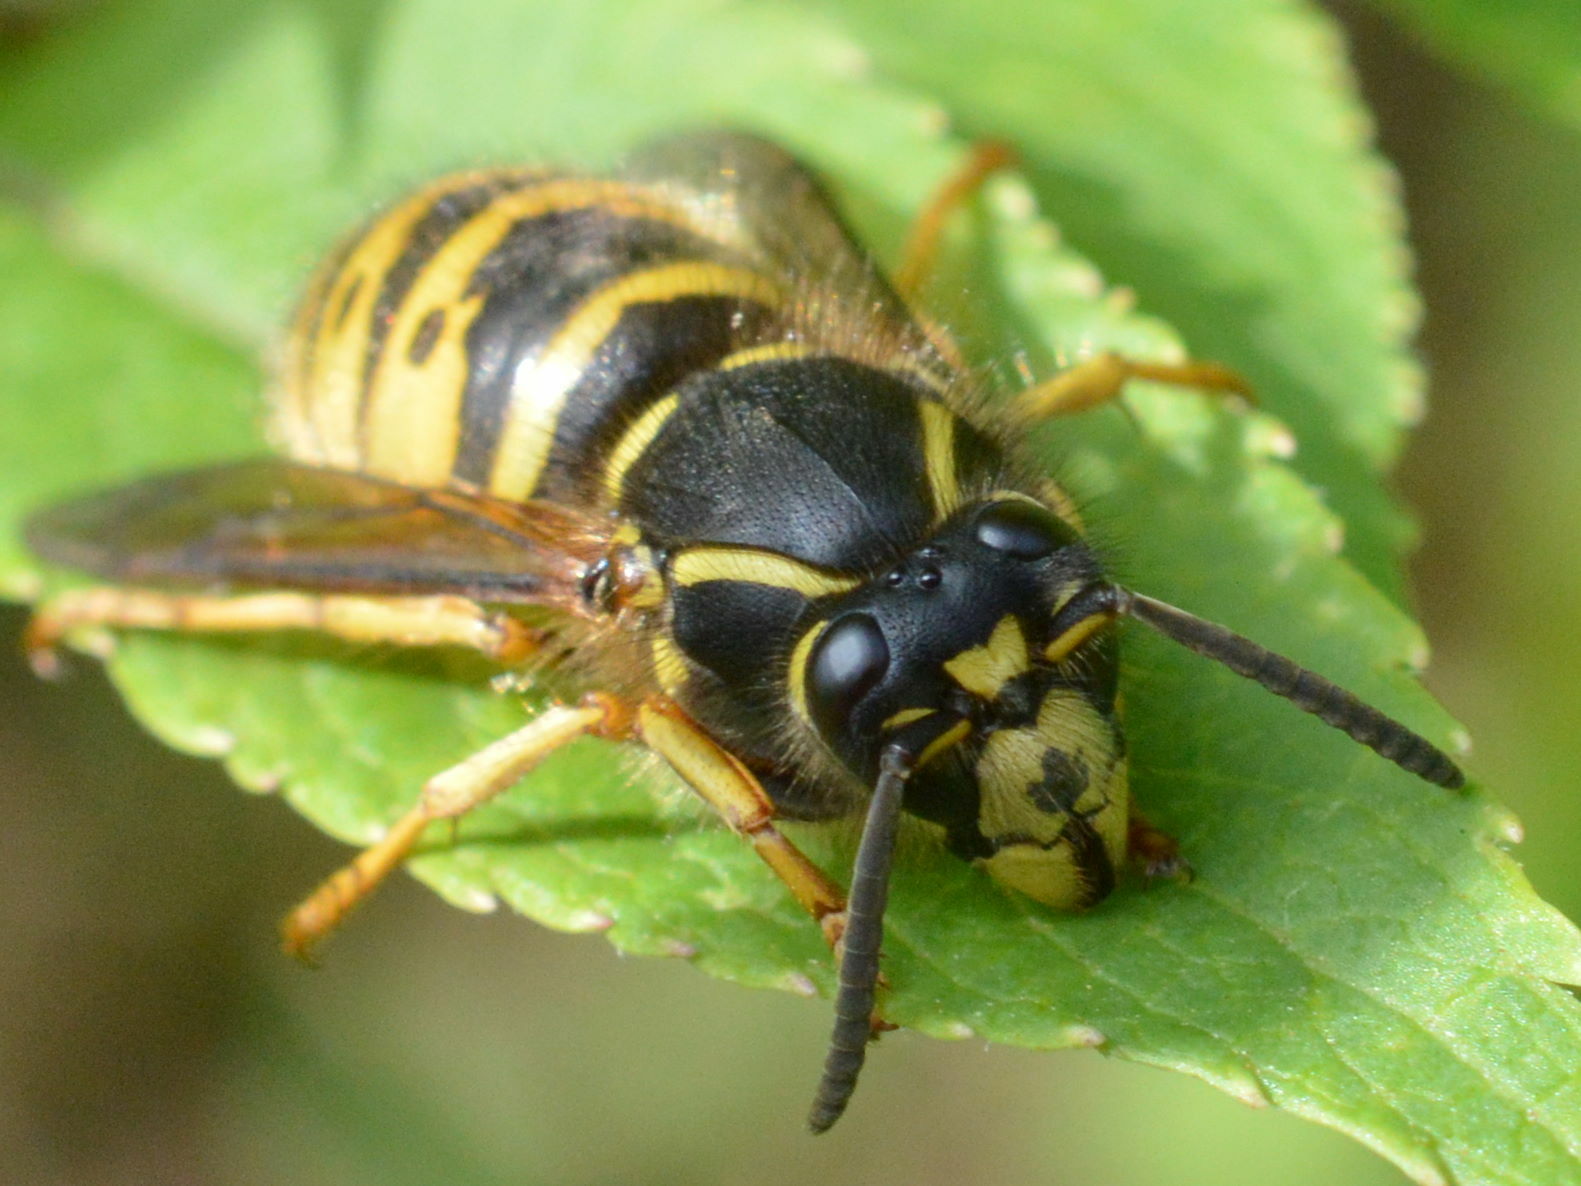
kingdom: Animalia
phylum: Arthropoda
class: Insecta
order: Hymenoptera
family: Vespidae
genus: Dolichovespula
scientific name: Dolichovespula saxonica
